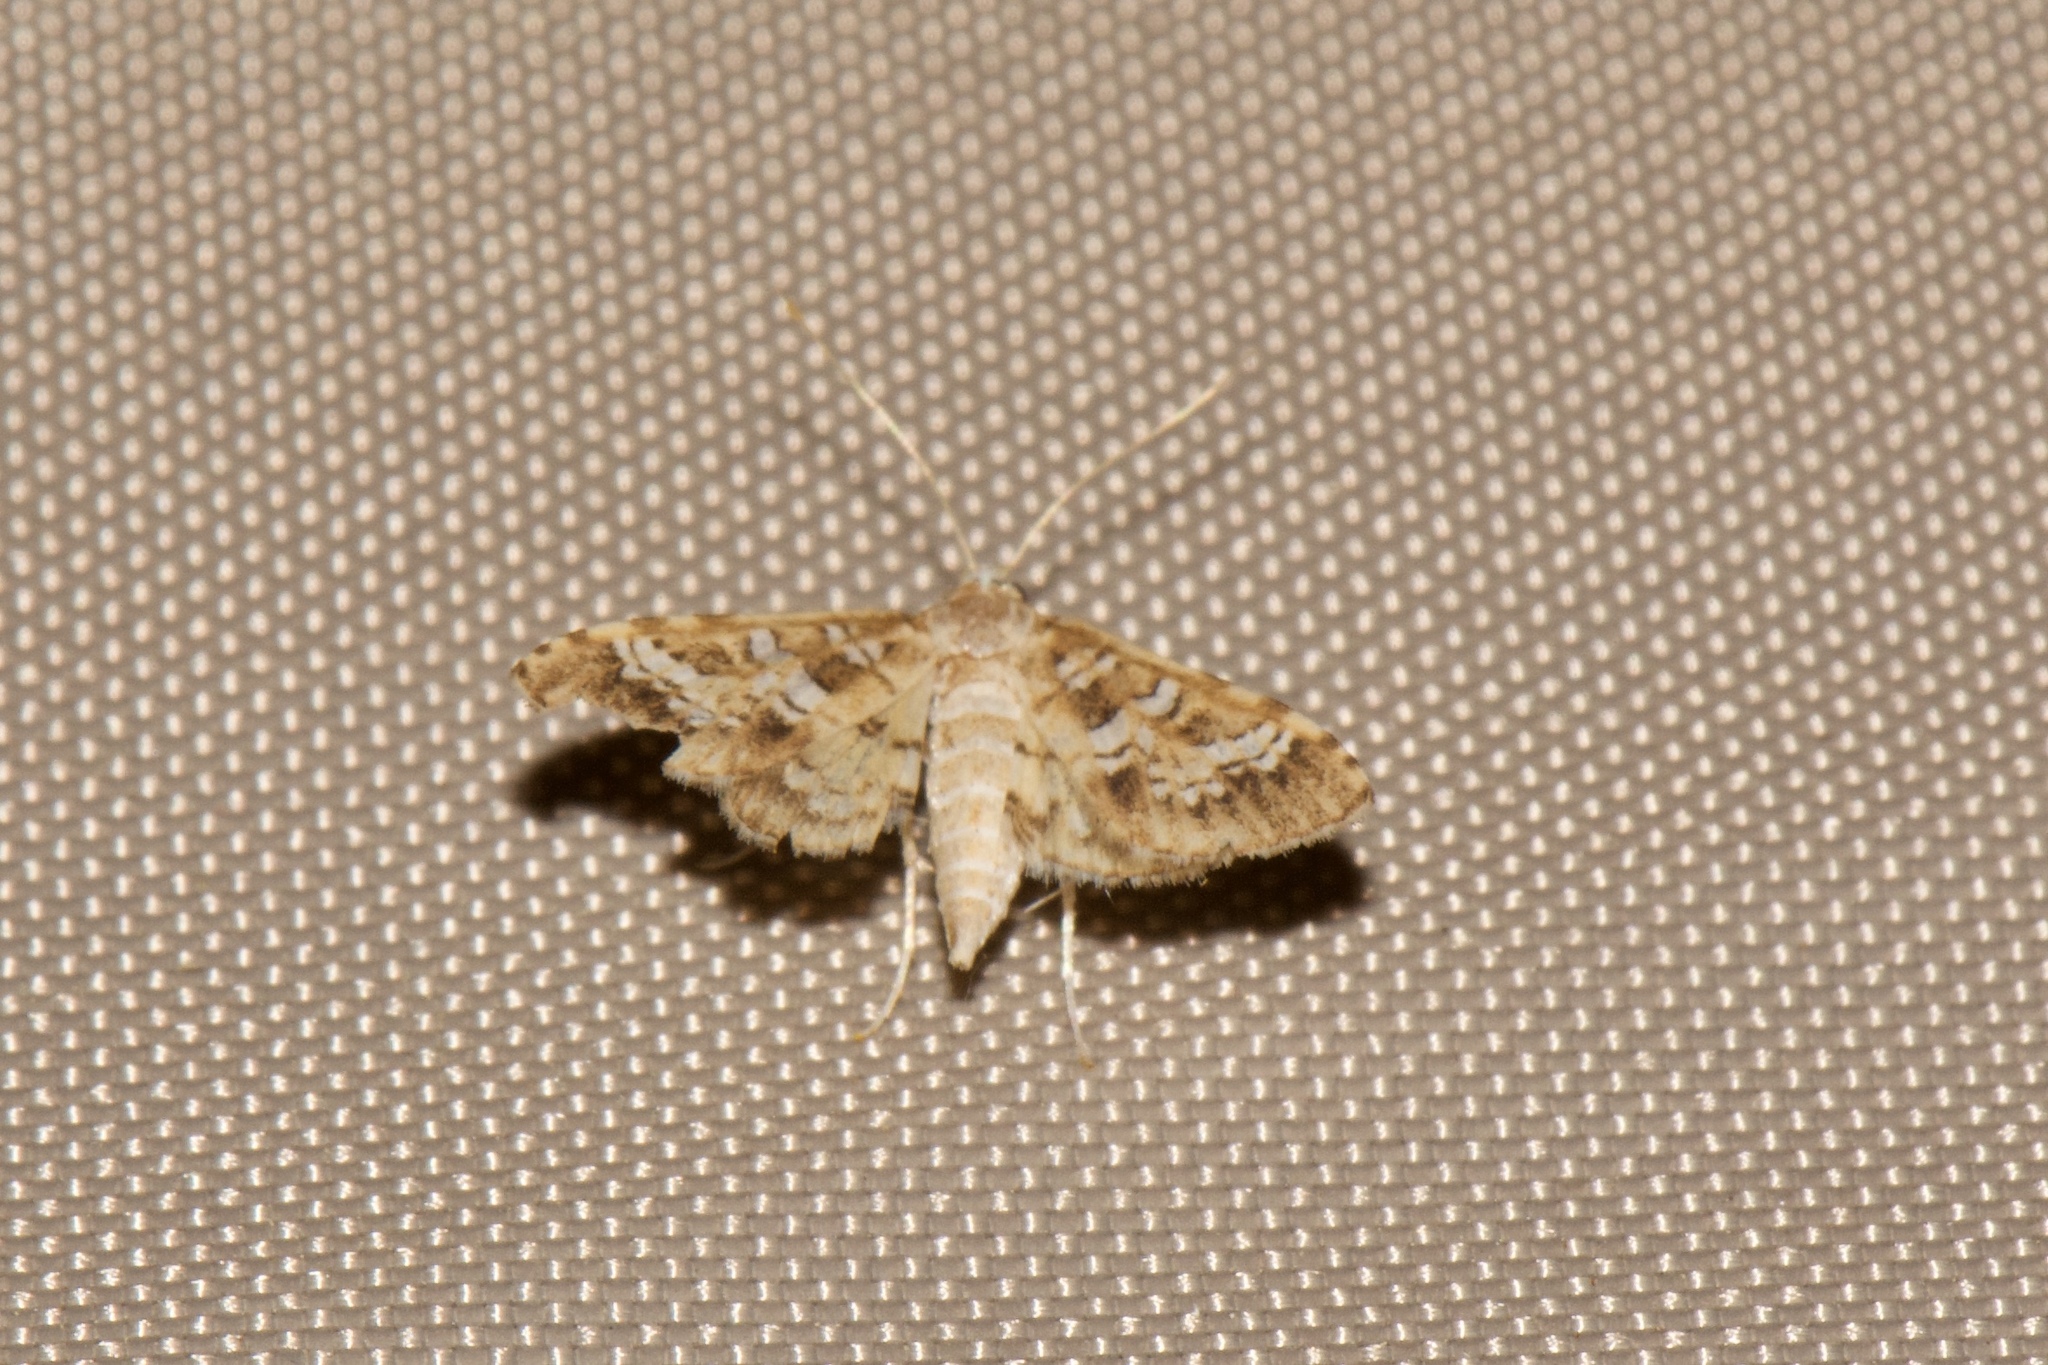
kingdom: Animalia
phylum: Arthropoda
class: Insecta
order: Lepidoptera
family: Crambidae
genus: Samea
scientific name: Samea multiplicalis
